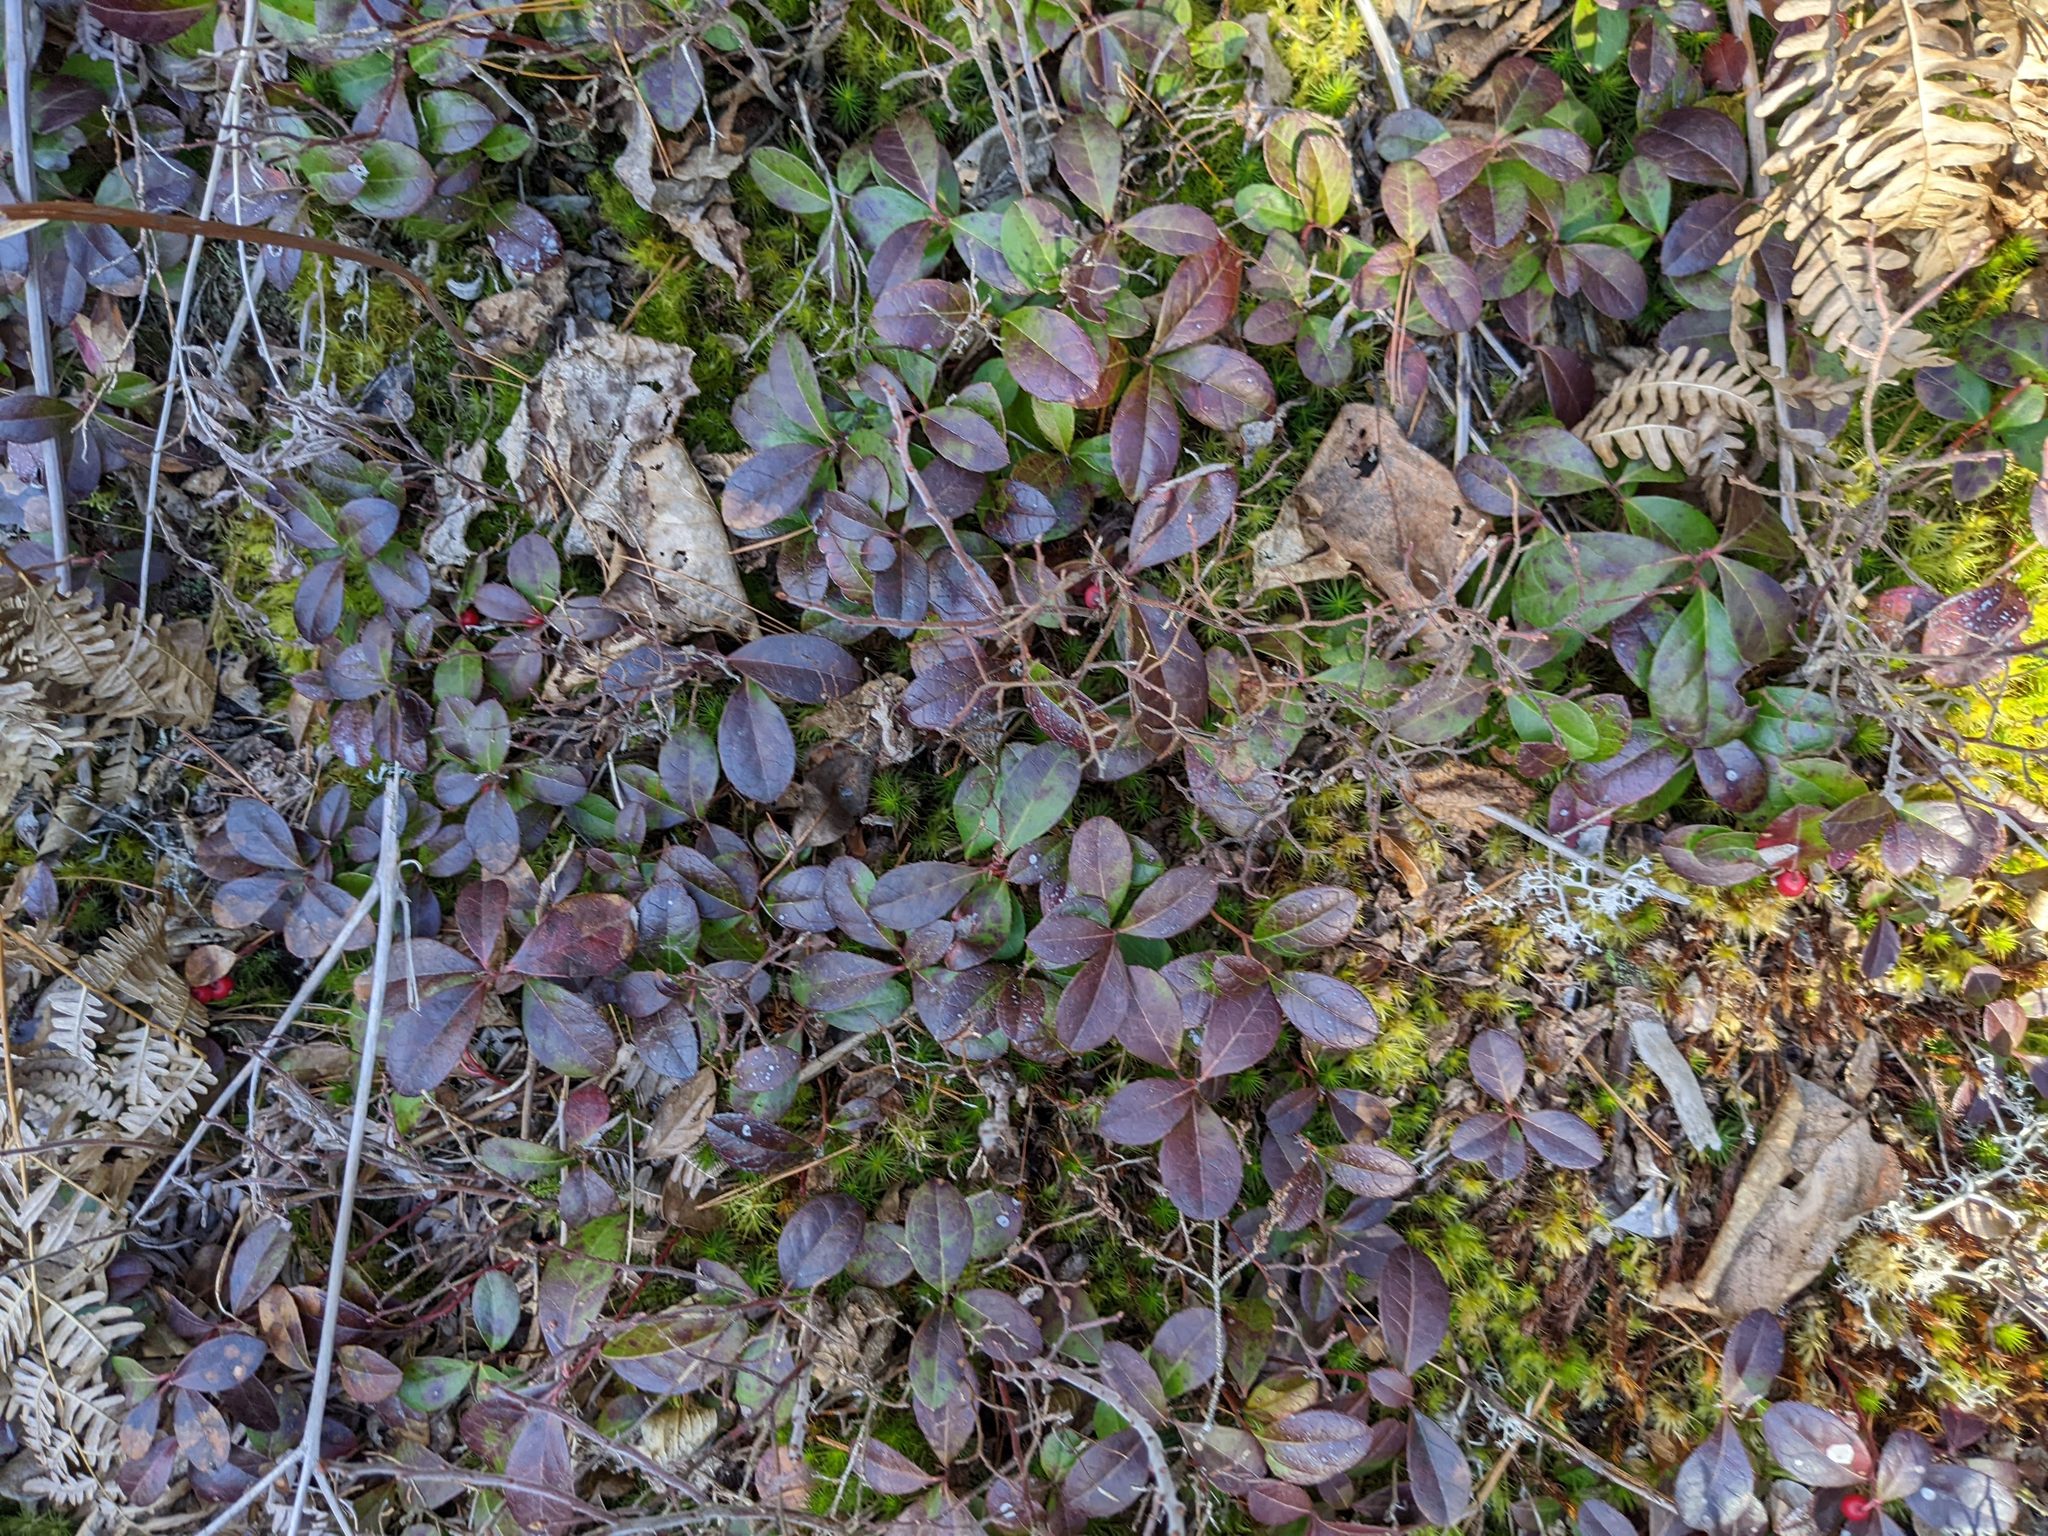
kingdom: Plantae
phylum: Tracheophyta
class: Magnoliopsida
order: Ericales
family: Ericaceae
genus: Gaultheria
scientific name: Gaultheria procumbens
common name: Checkerberry
